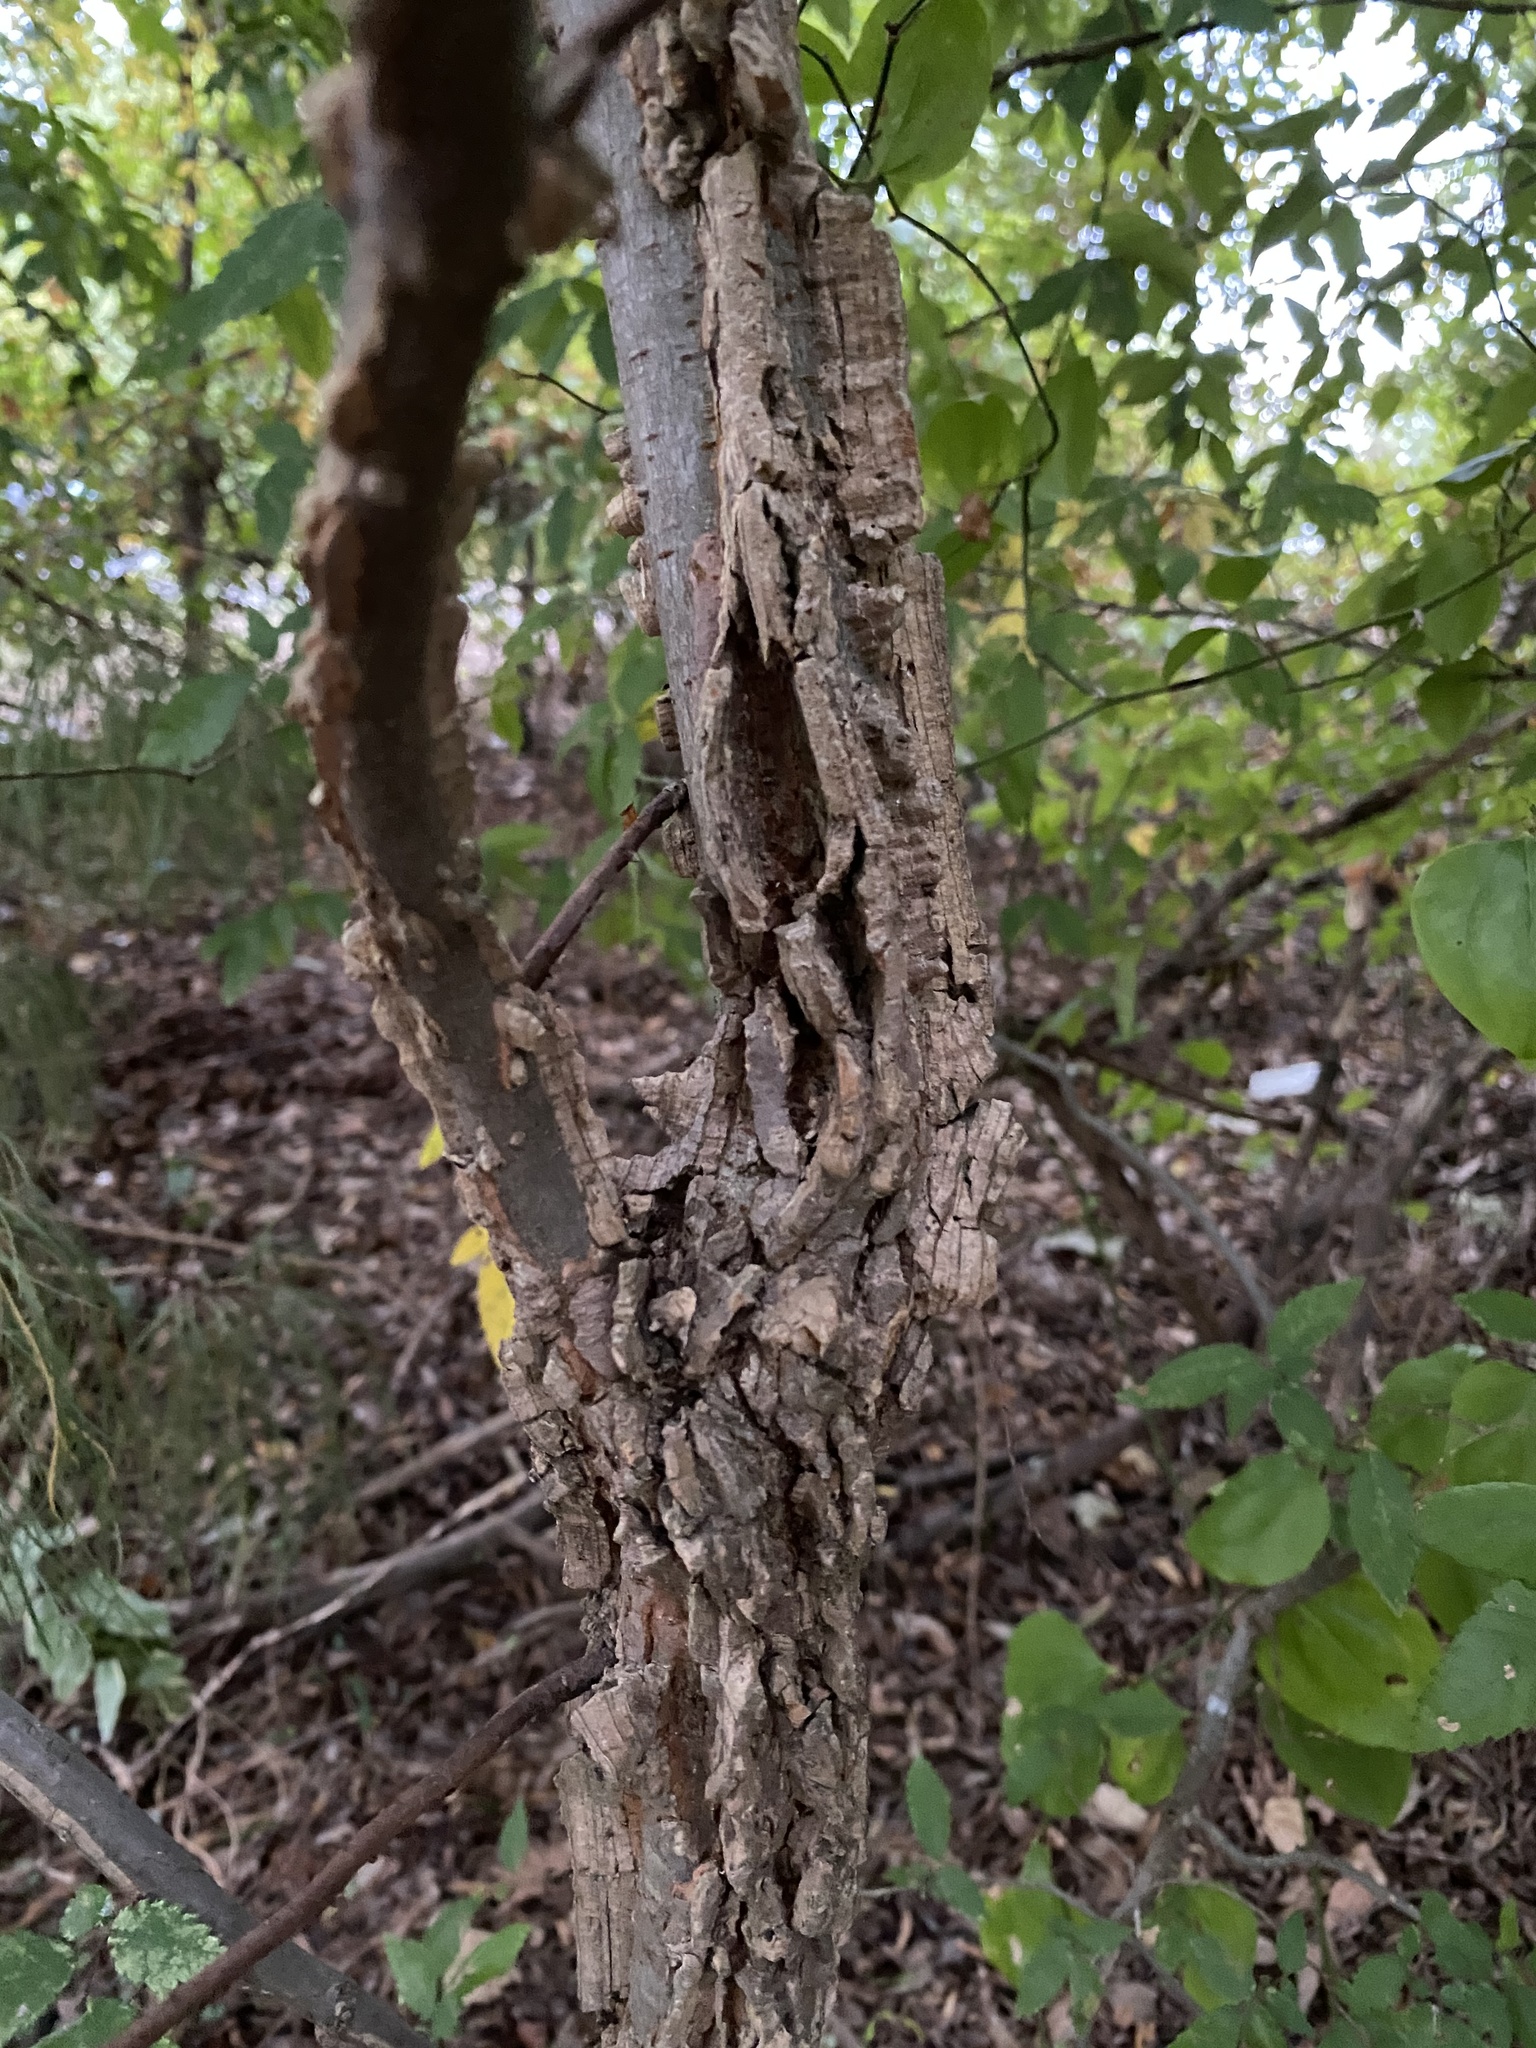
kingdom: Plantae
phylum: Tracheophyta
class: Magnoliopsida
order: Rosales
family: Ulmaceae
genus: Ulmus
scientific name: Ulmus alata
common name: Winged elm
